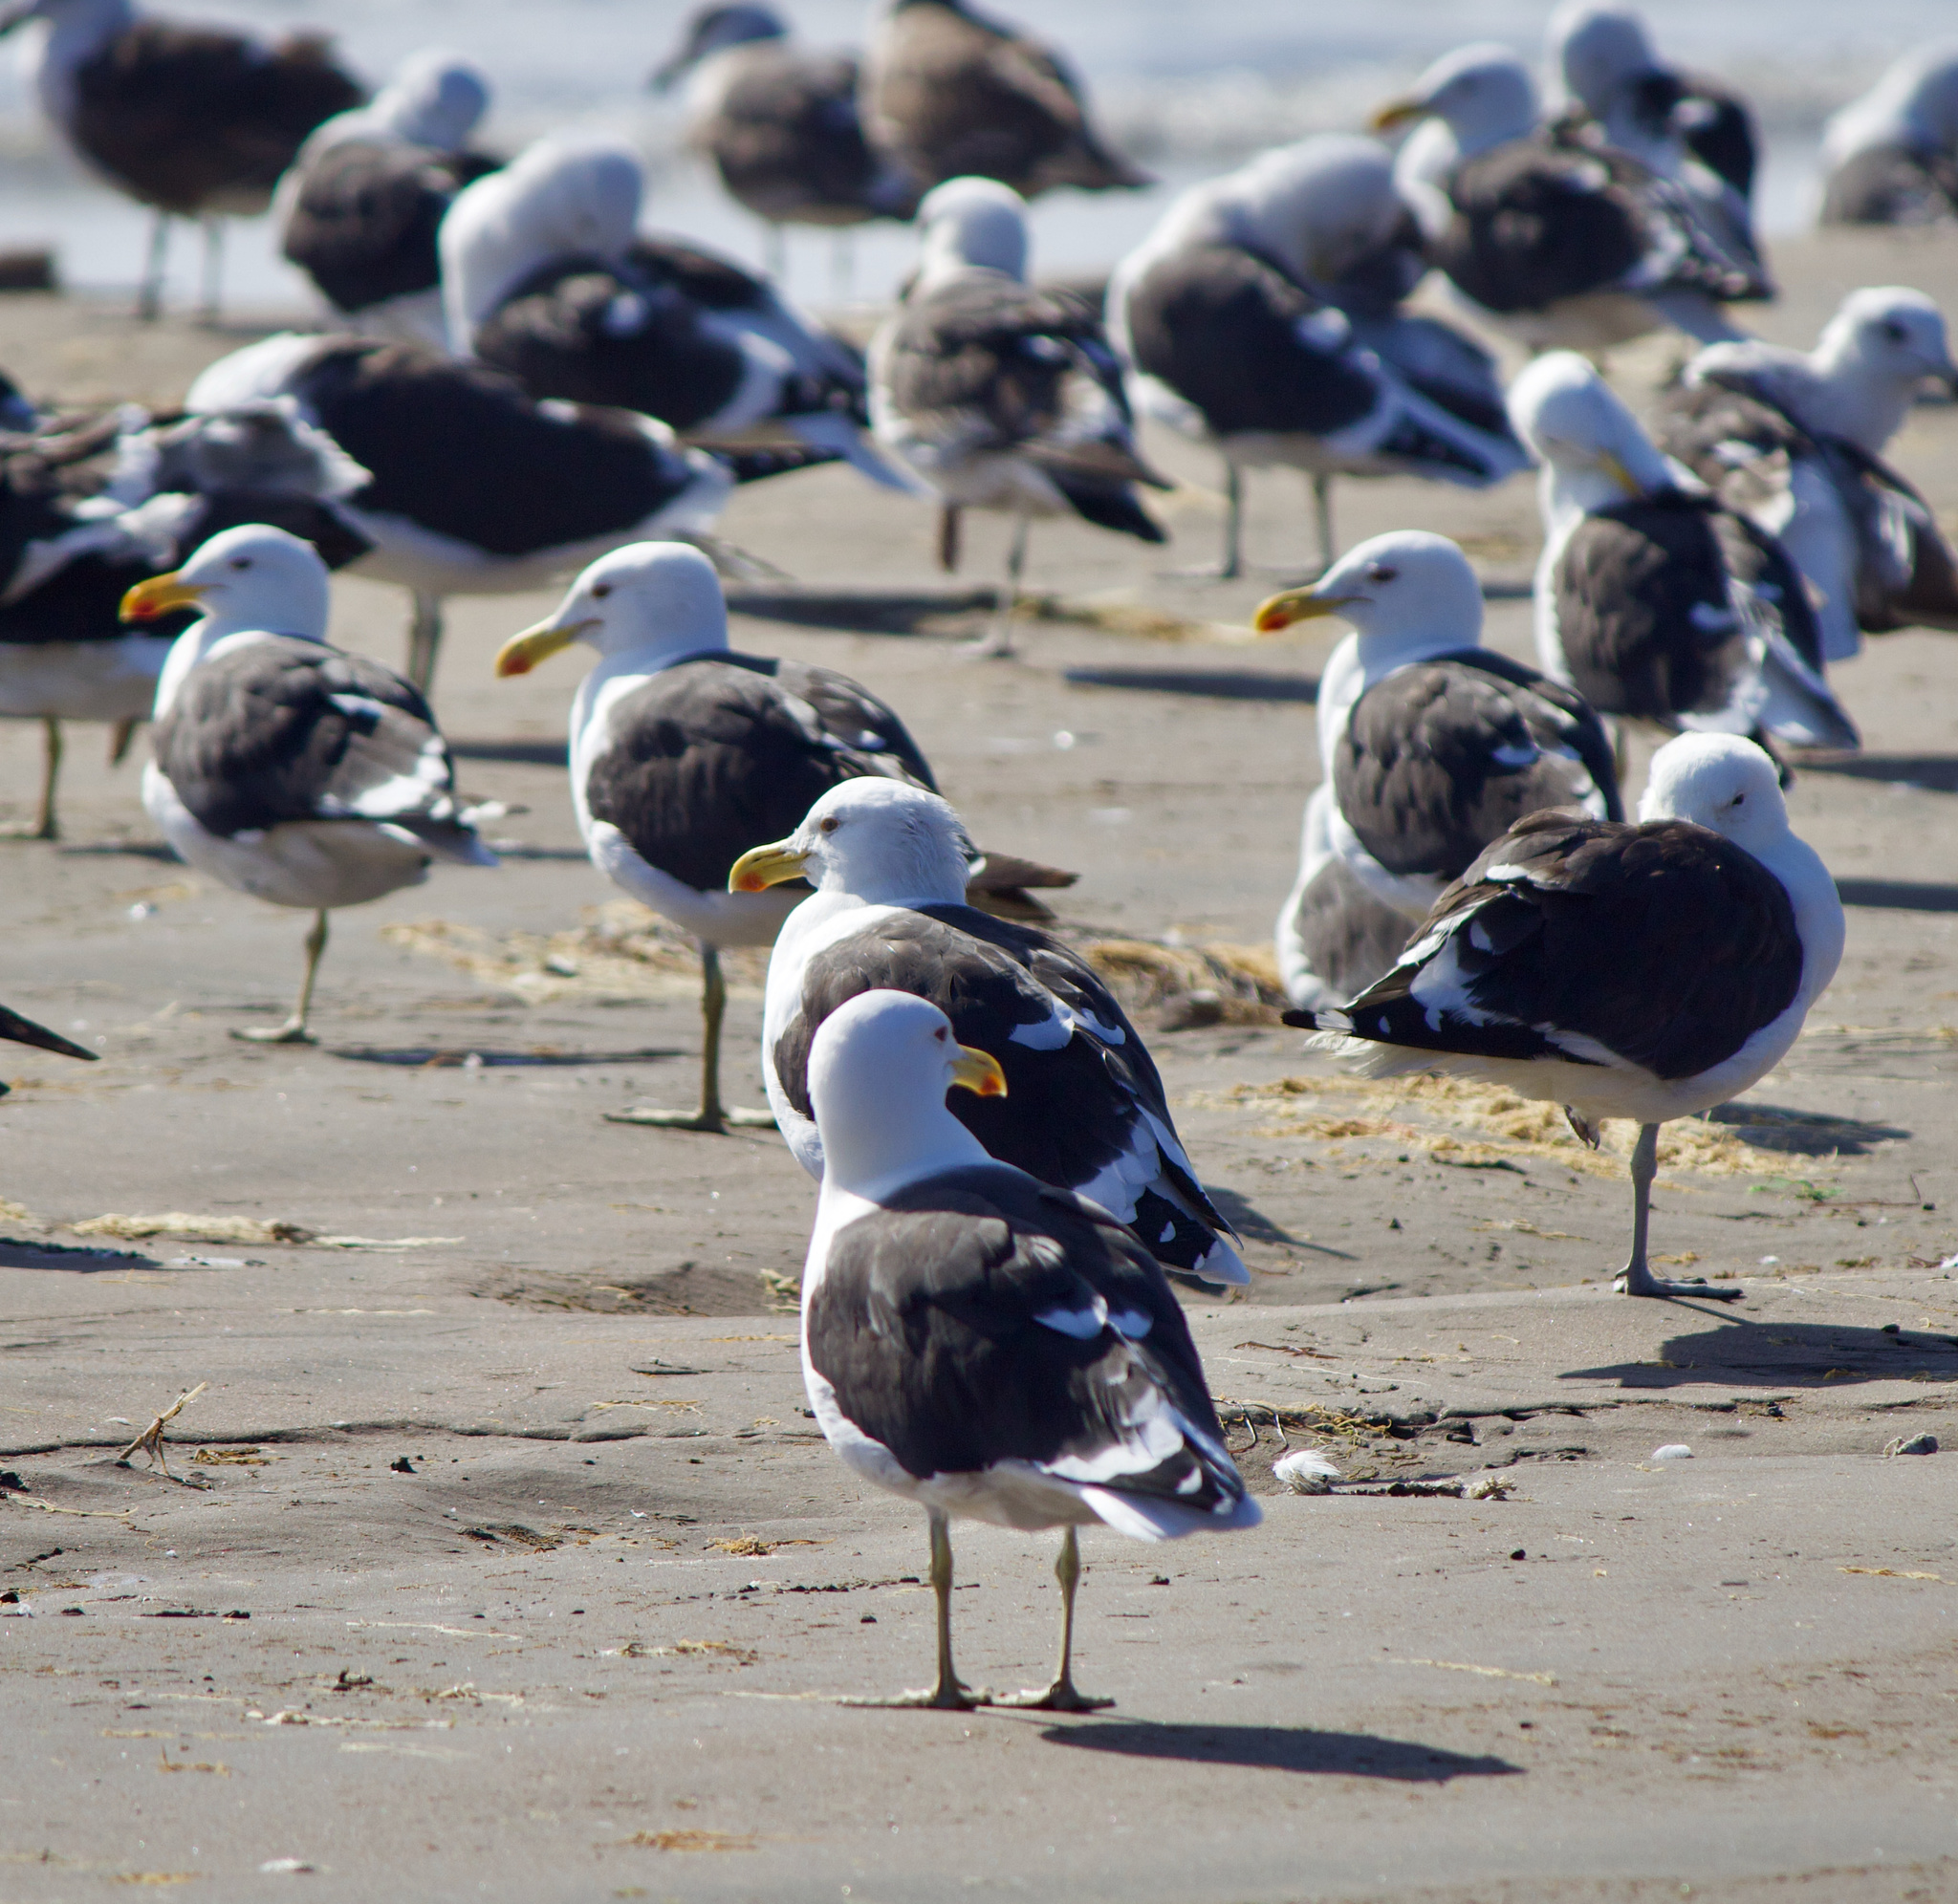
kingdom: Animalia
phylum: Chordata
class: Aves
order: Charadriiformes
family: Laridae
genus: Larus
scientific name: Larus dominicanus
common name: Kelp gull
